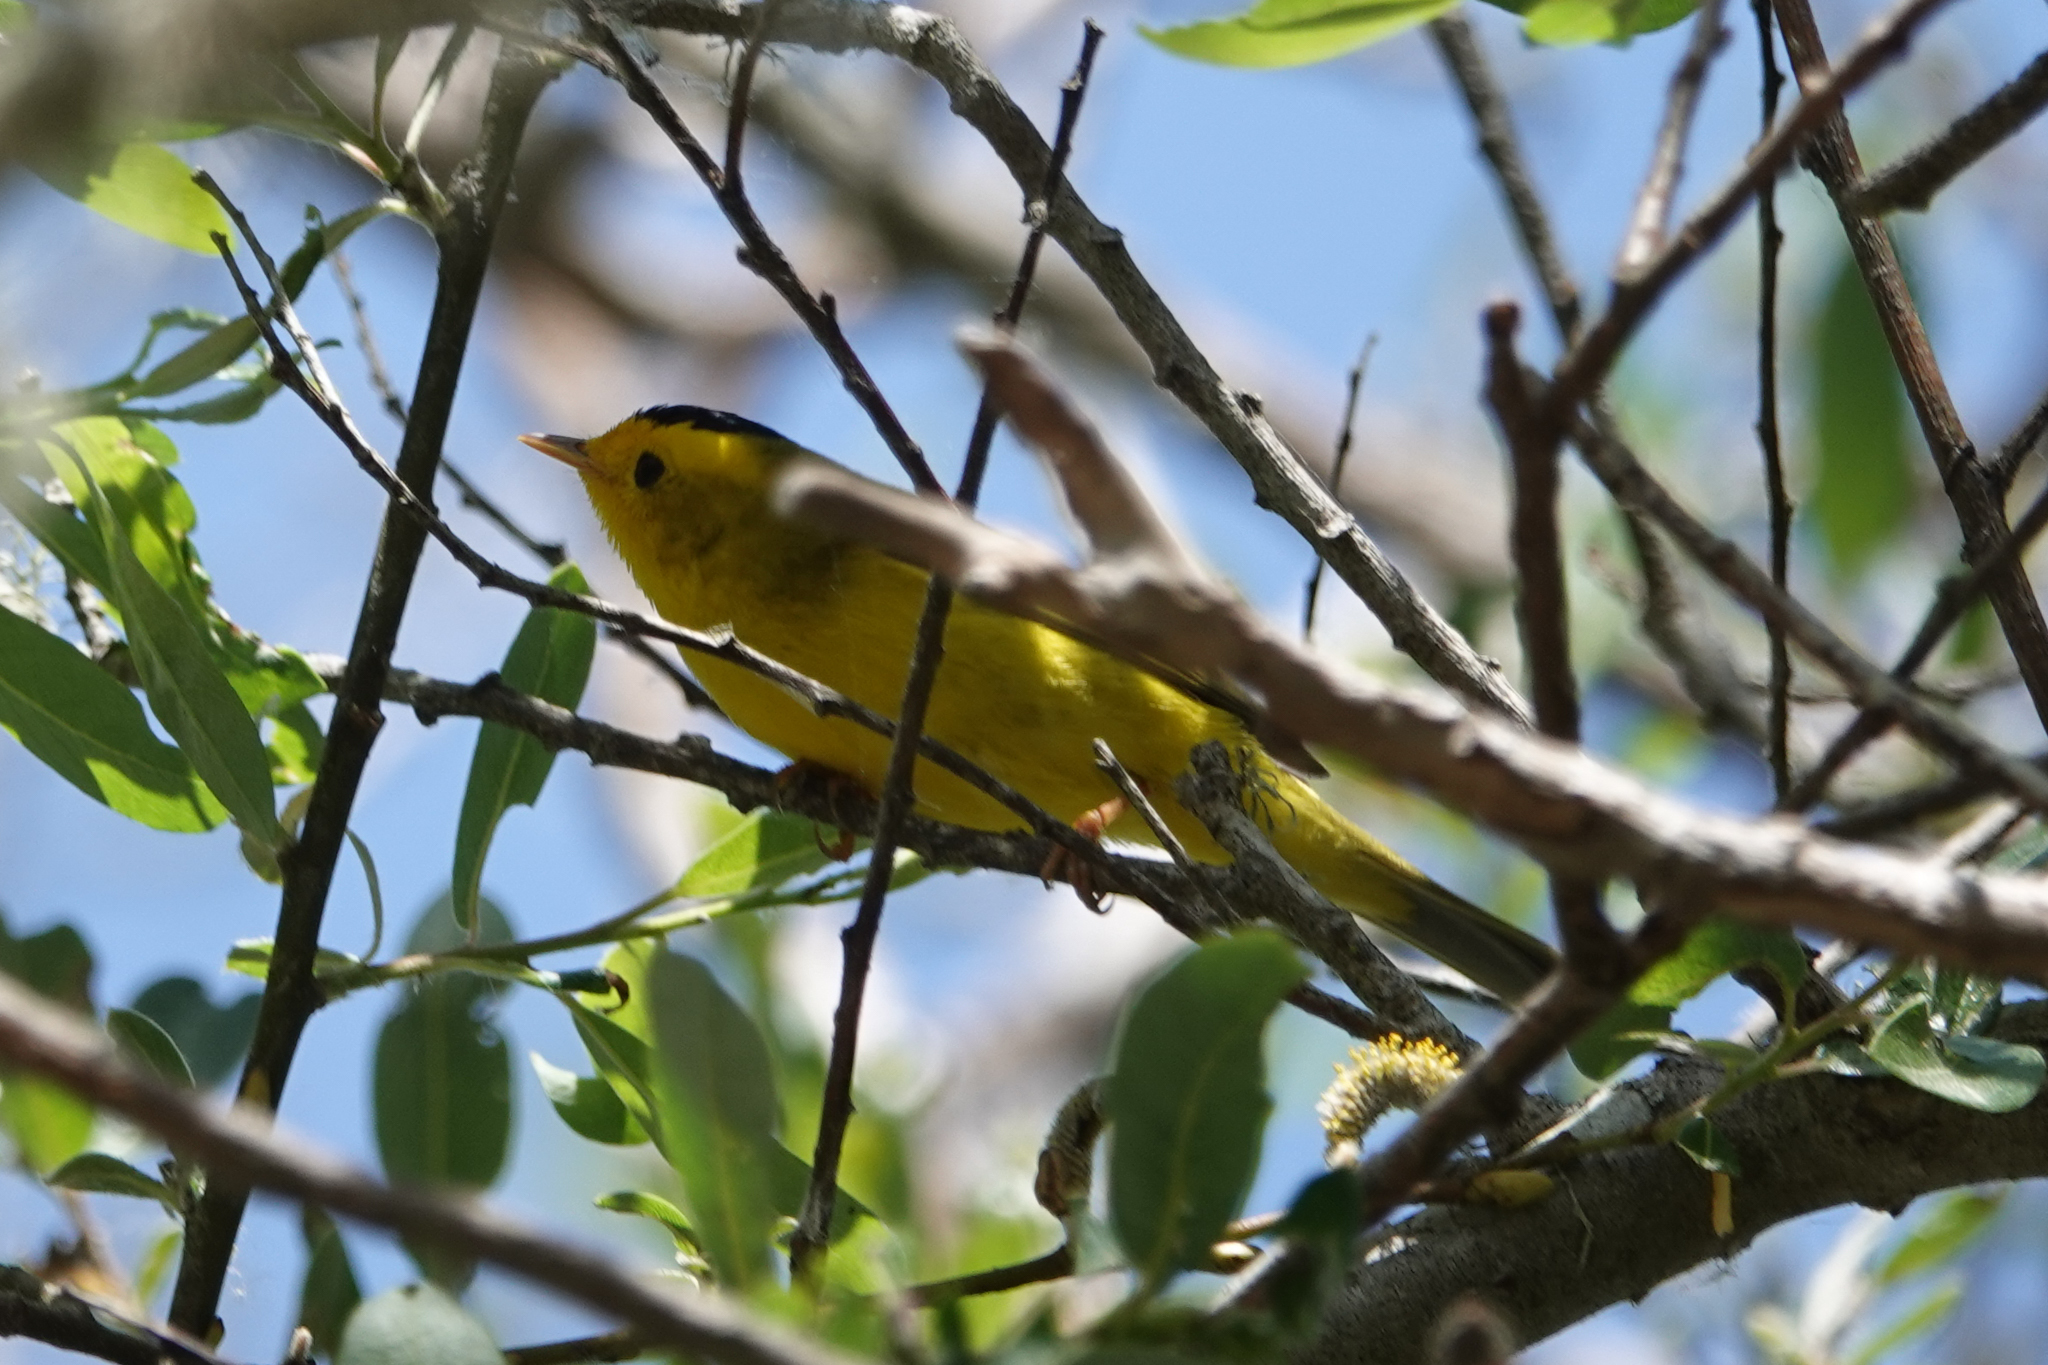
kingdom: Animalia
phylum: Chordata
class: Aves
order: Passeriformes
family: Parulidae
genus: Cardellina
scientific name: Cardellina pusilla
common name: Wilson's warbler
